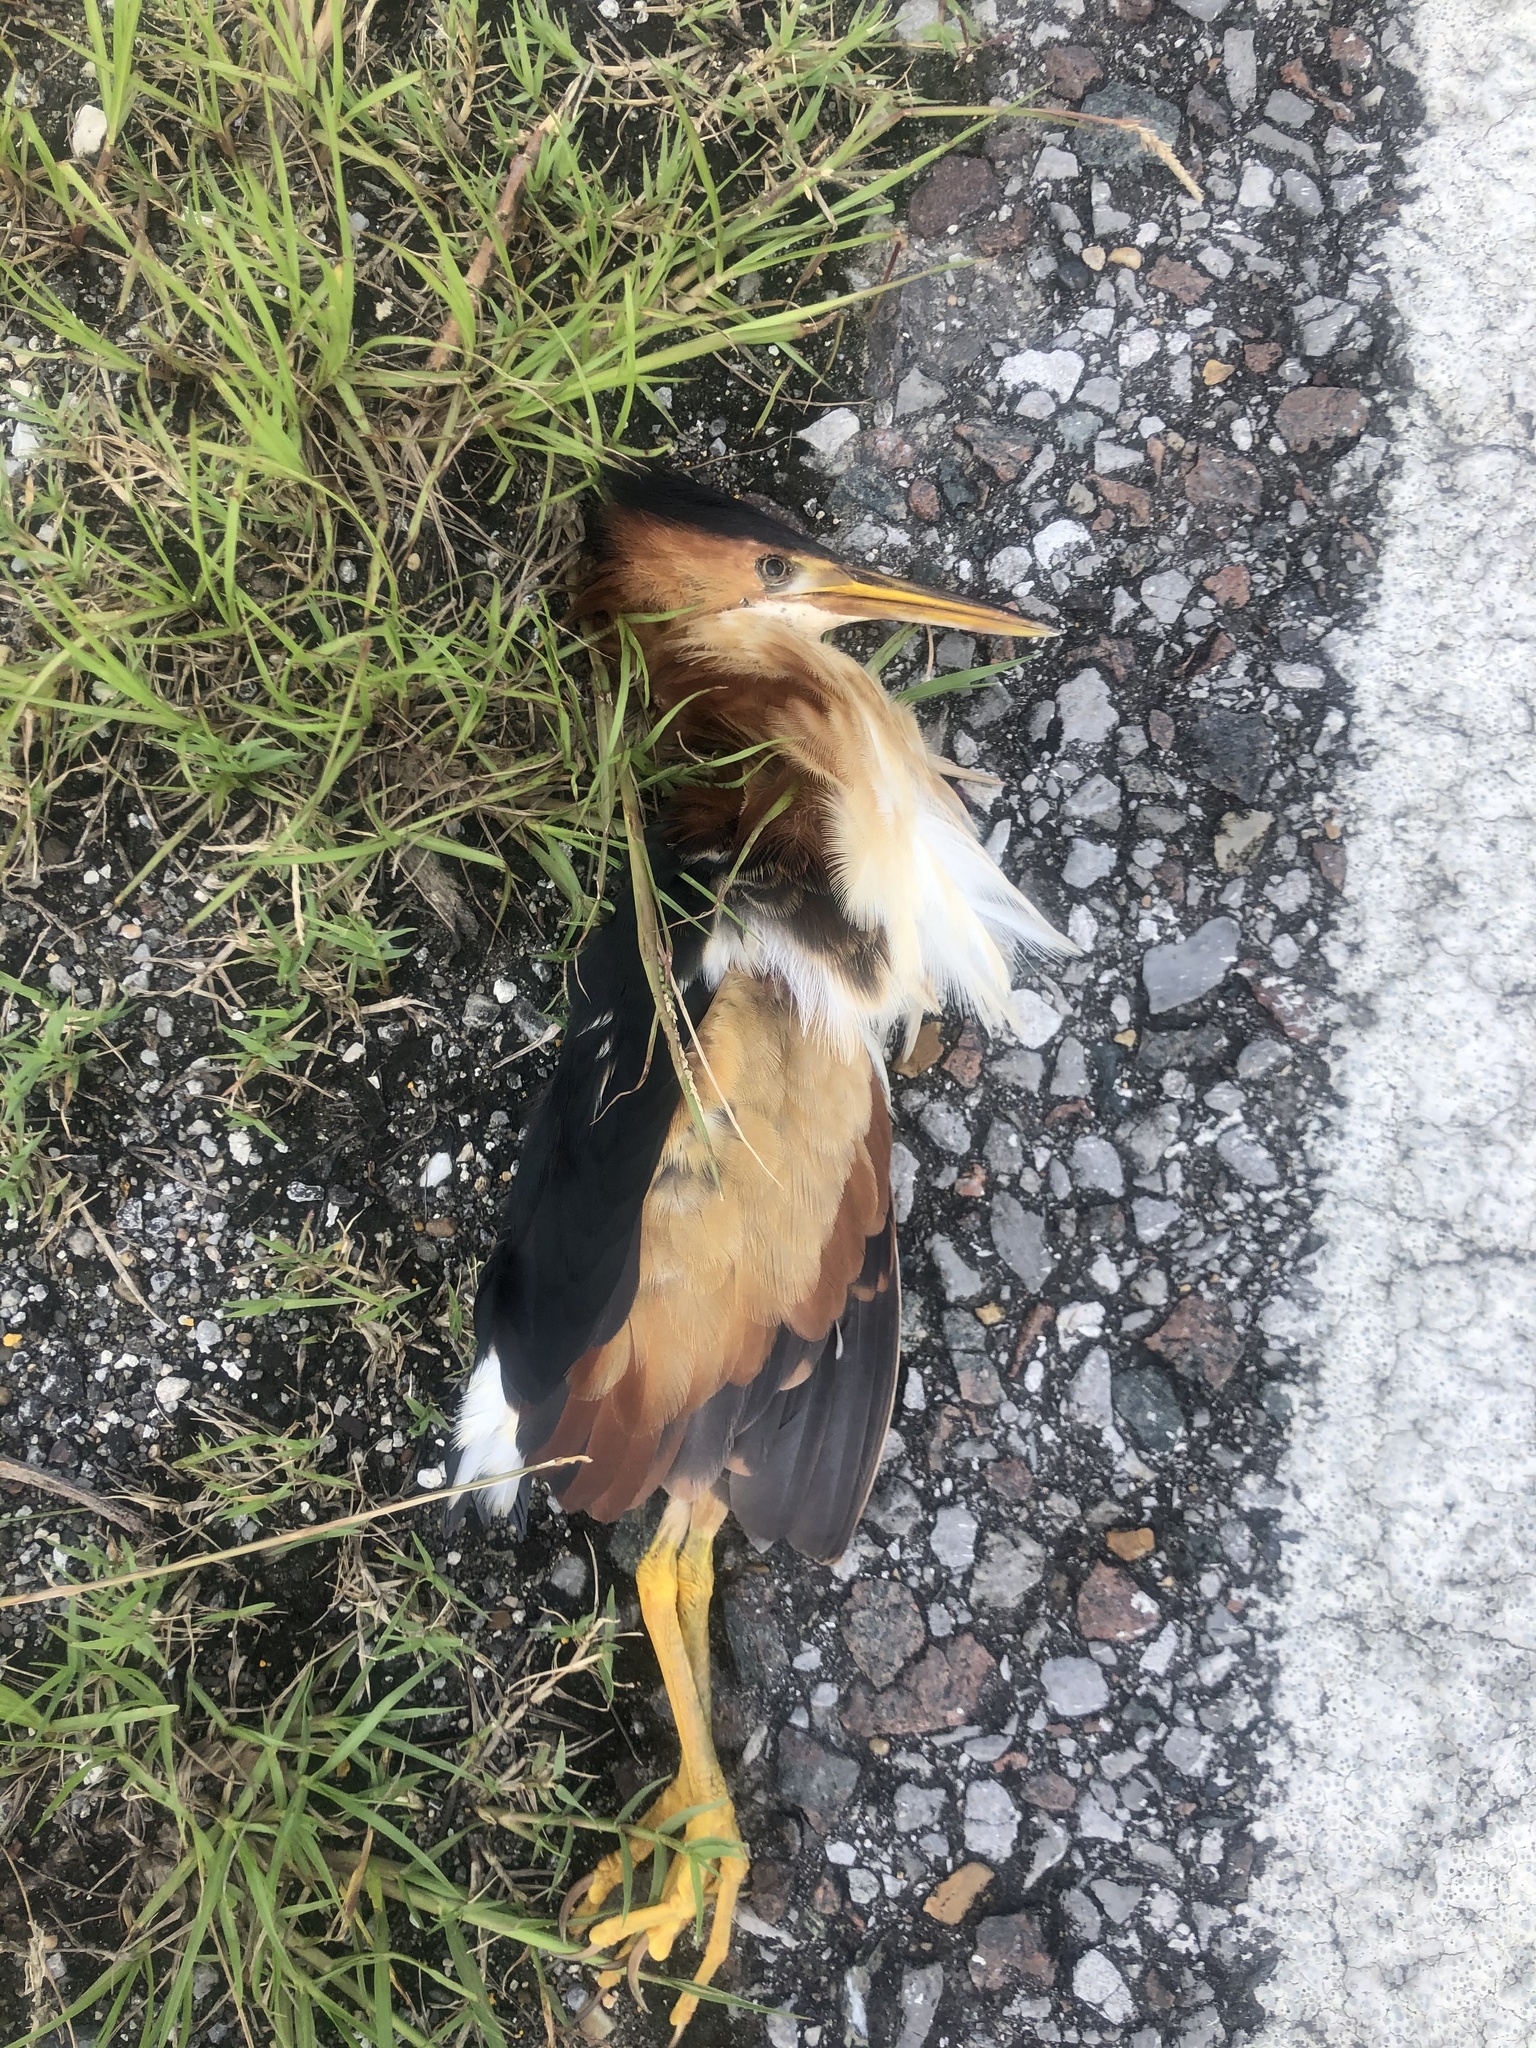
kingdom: Animalia
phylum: Chordata
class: Aves
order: Pelecaniformes
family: Ardeidae
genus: Ixobrychus
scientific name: Ixobrychus exilis
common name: Least bittern
